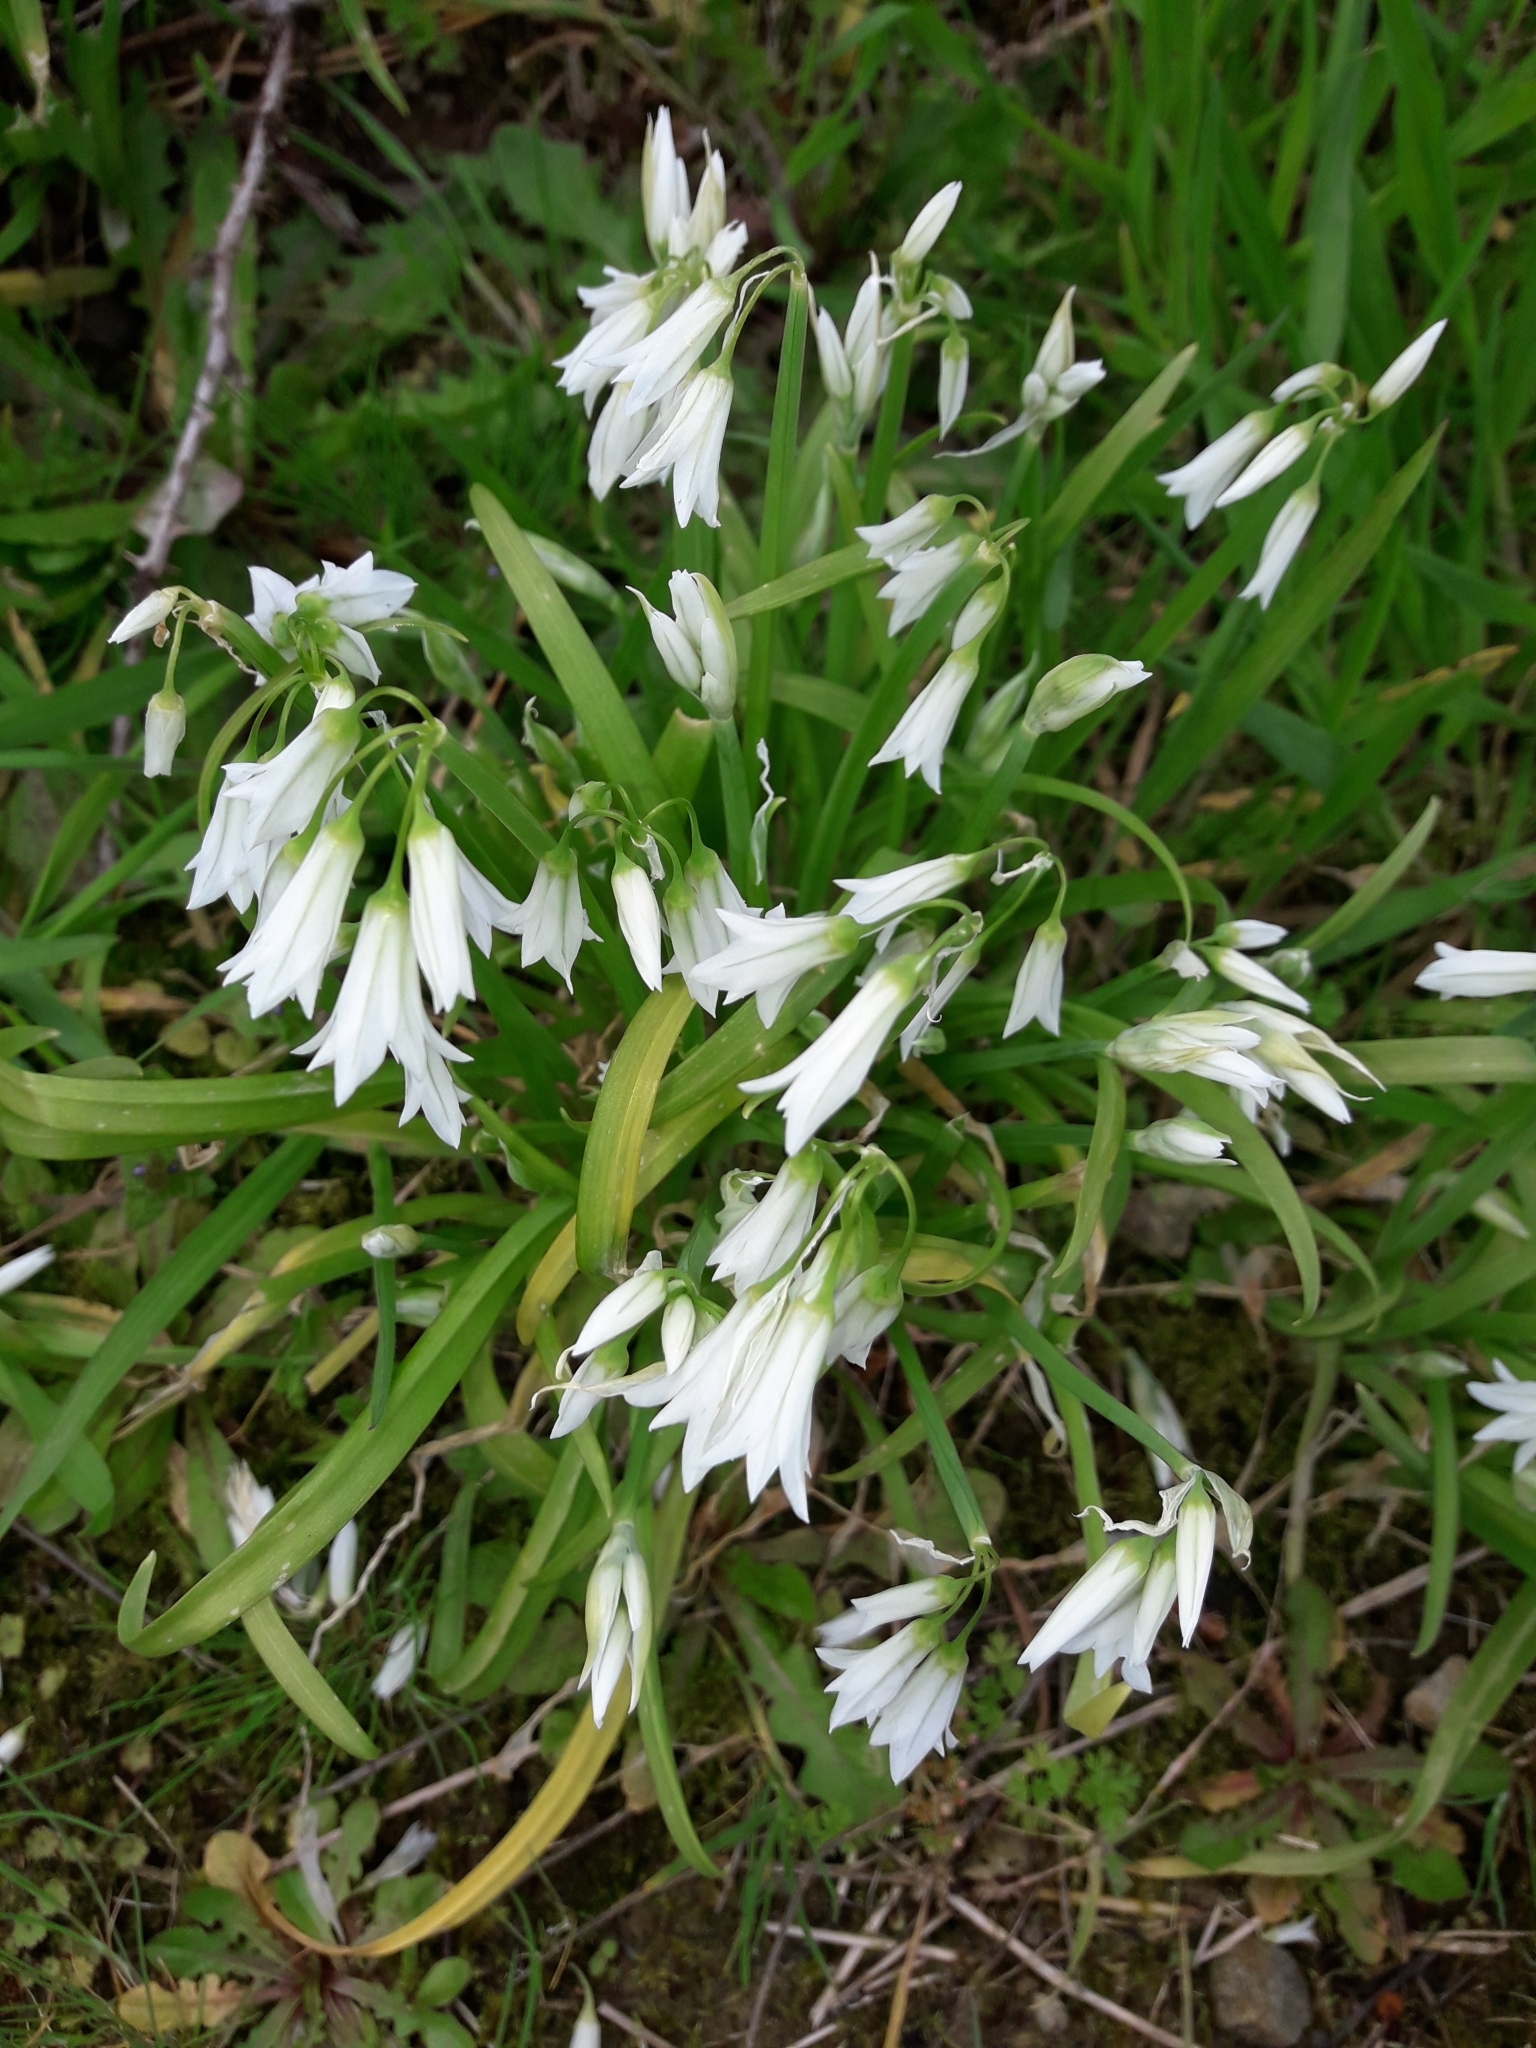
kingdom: Plantae
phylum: Tracheophyta
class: Liliopsida
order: Asparagales
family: Amaryllidaceae
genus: Allium
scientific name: Allium triquetrum
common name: Three-cornered garlic
